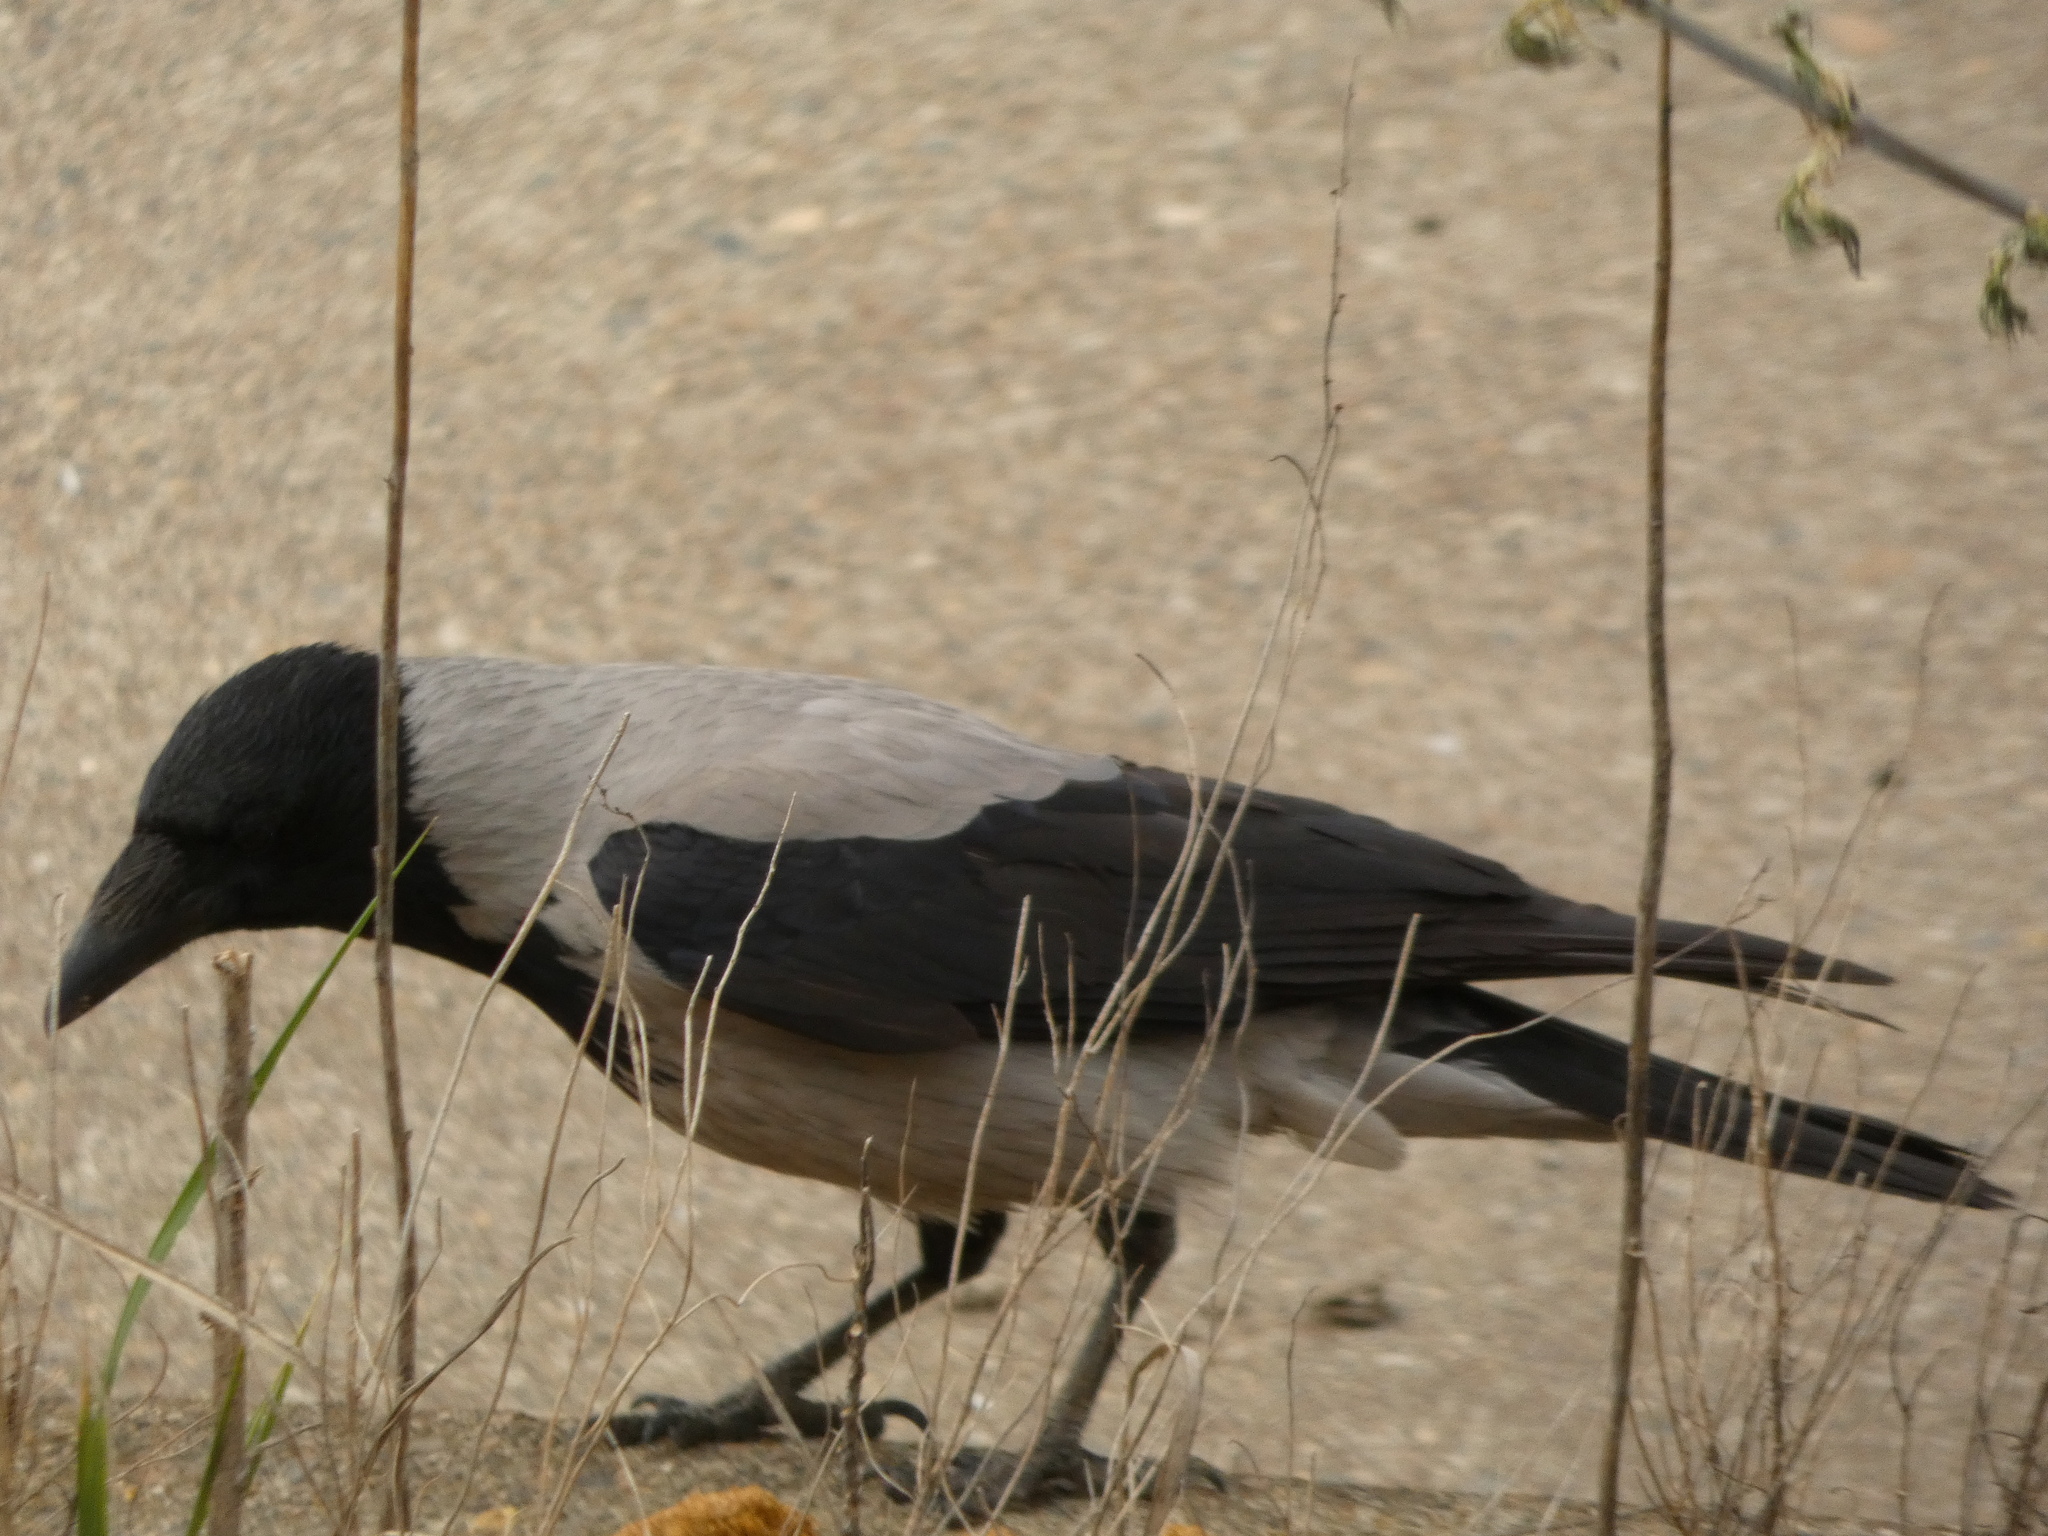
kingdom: Animalia
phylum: Chordata
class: Aves
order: Passeriformes
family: Corvidae
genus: Corvus
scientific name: Corvus cornix
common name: Hooded crow
